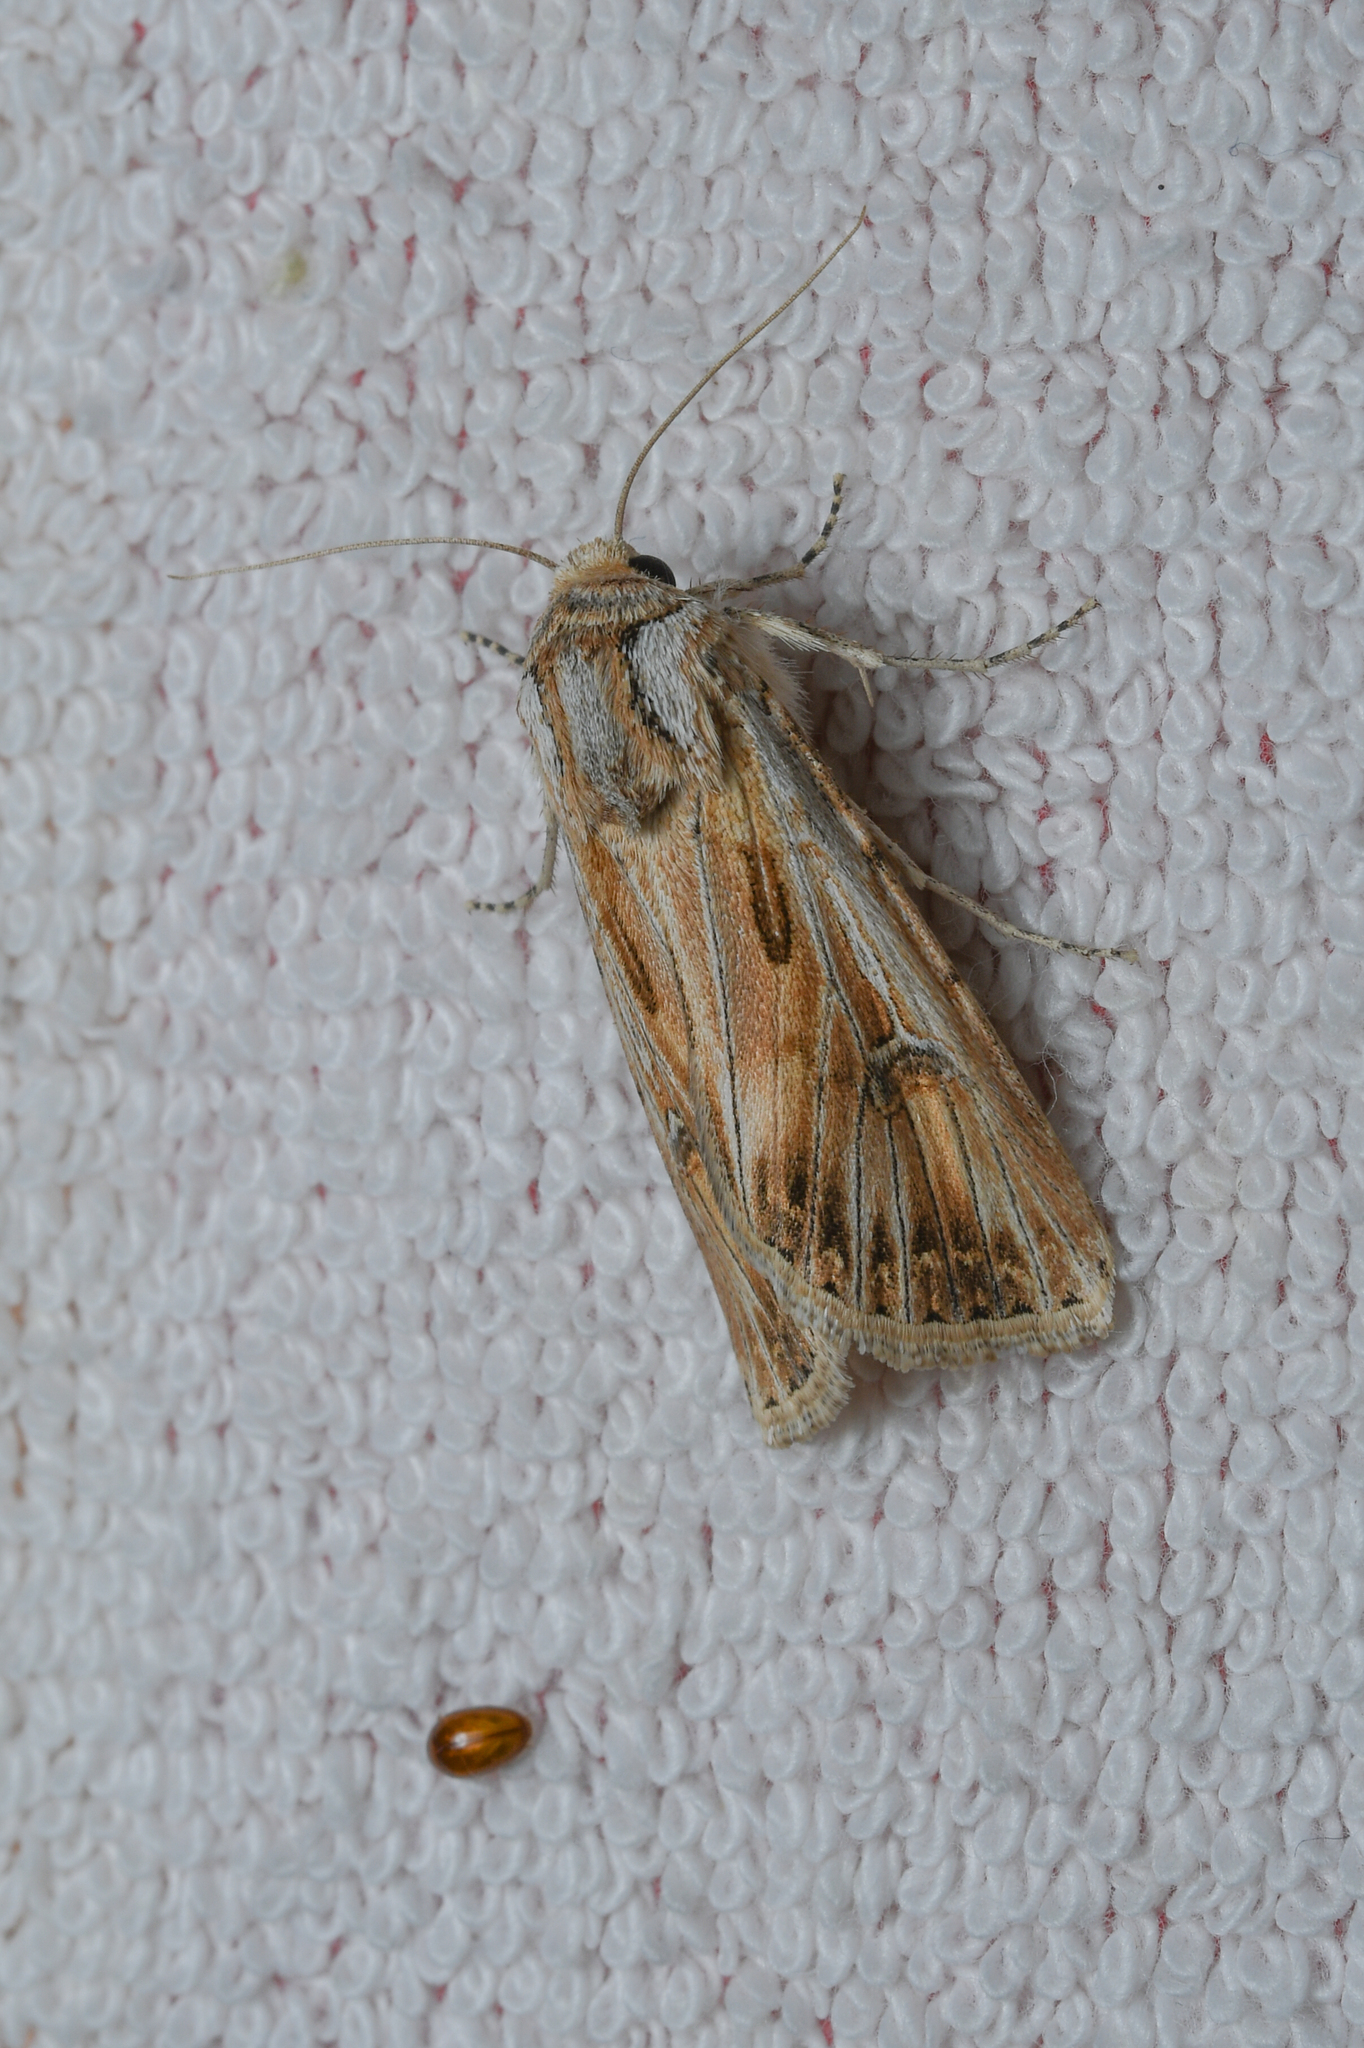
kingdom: Animalia
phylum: Arthropoda
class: Insecta
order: Lepidoptera
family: Noctuidae
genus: Agrotis
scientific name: Agrotis herzogi
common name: Spalding's dart
